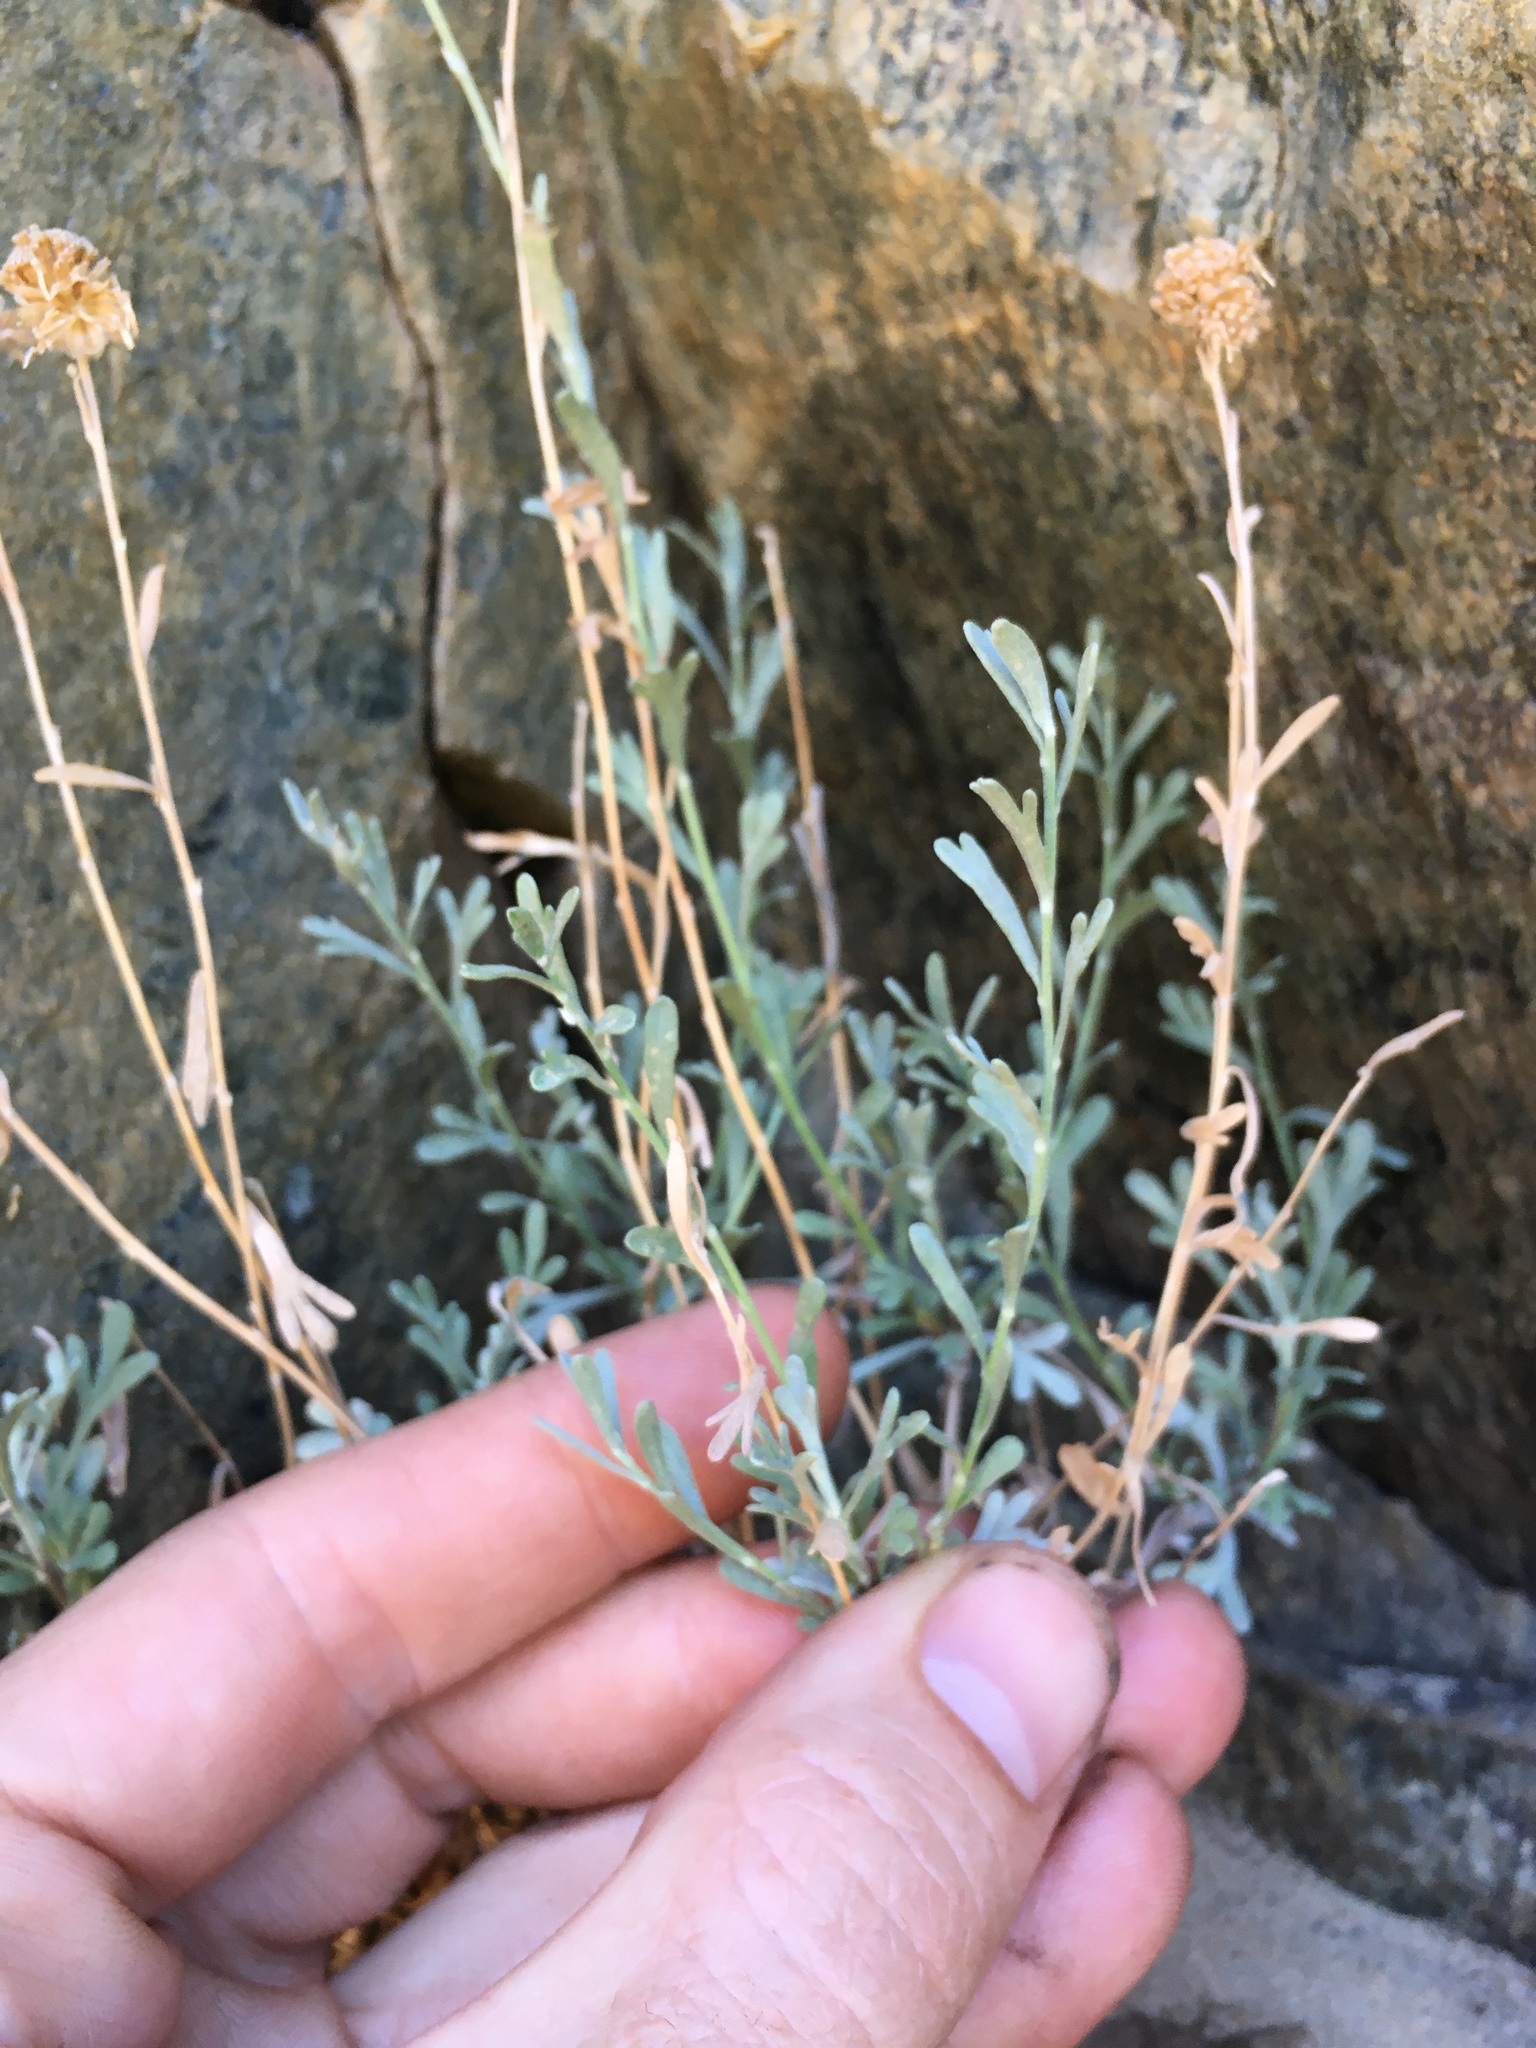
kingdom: Plantae
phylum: Tracheophyta
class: Magnoliopsida
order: Asterales
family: Asteraceae
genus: Artemisia
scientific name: Artemisia albicans
